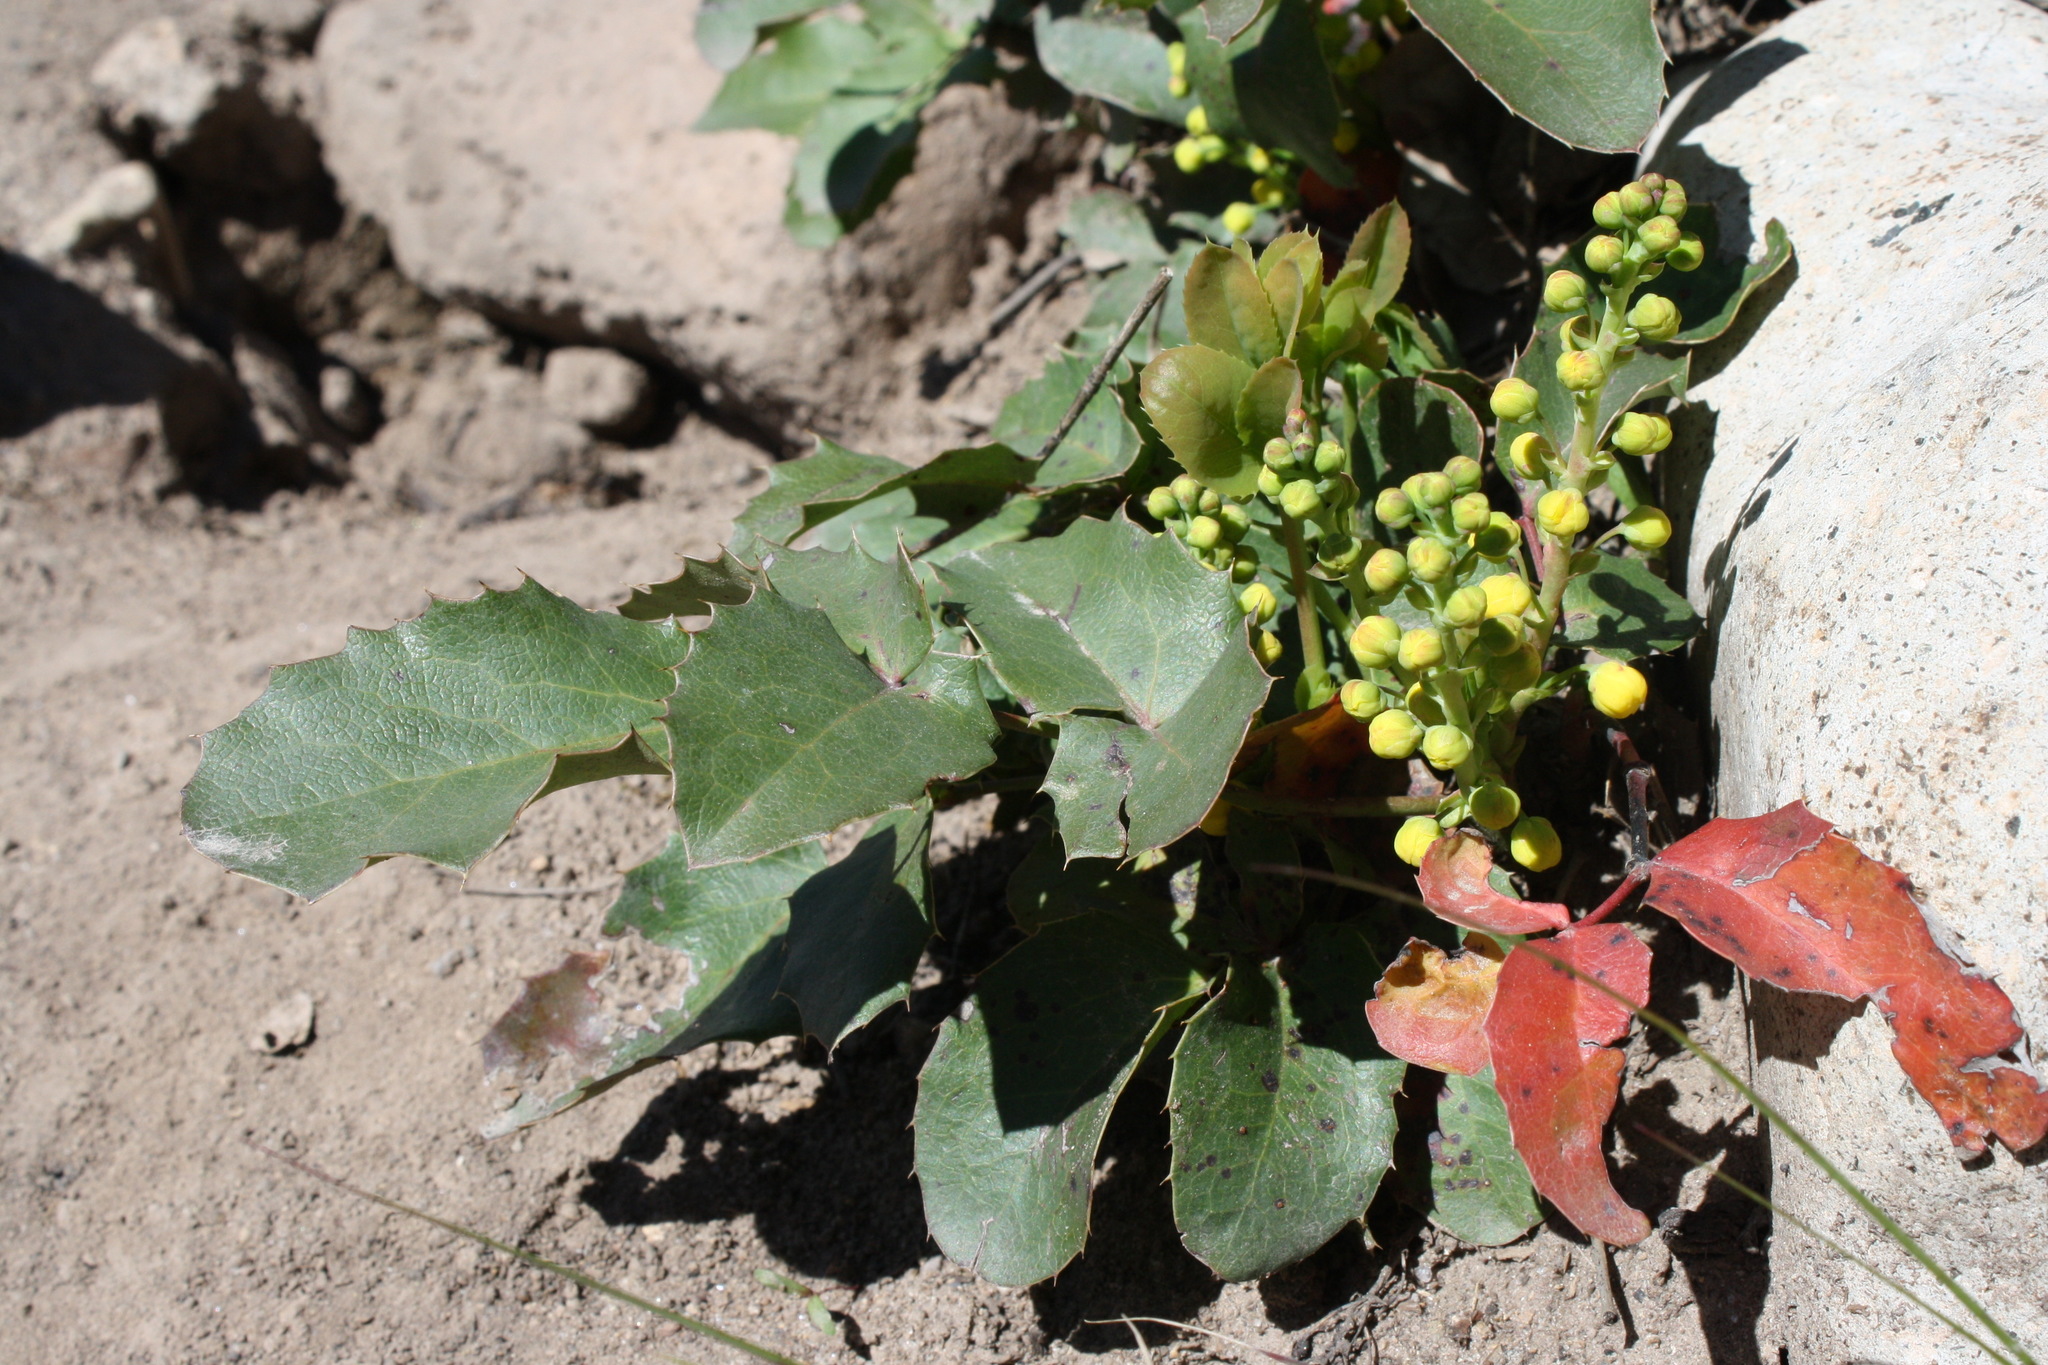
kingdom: Plantae
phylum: Tracheophyta
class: Magnoliopsida
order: Ranunculales
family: Berberidaceae
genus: Mahonia
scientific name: Mahonia repens
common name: Creeping oregon-grape
